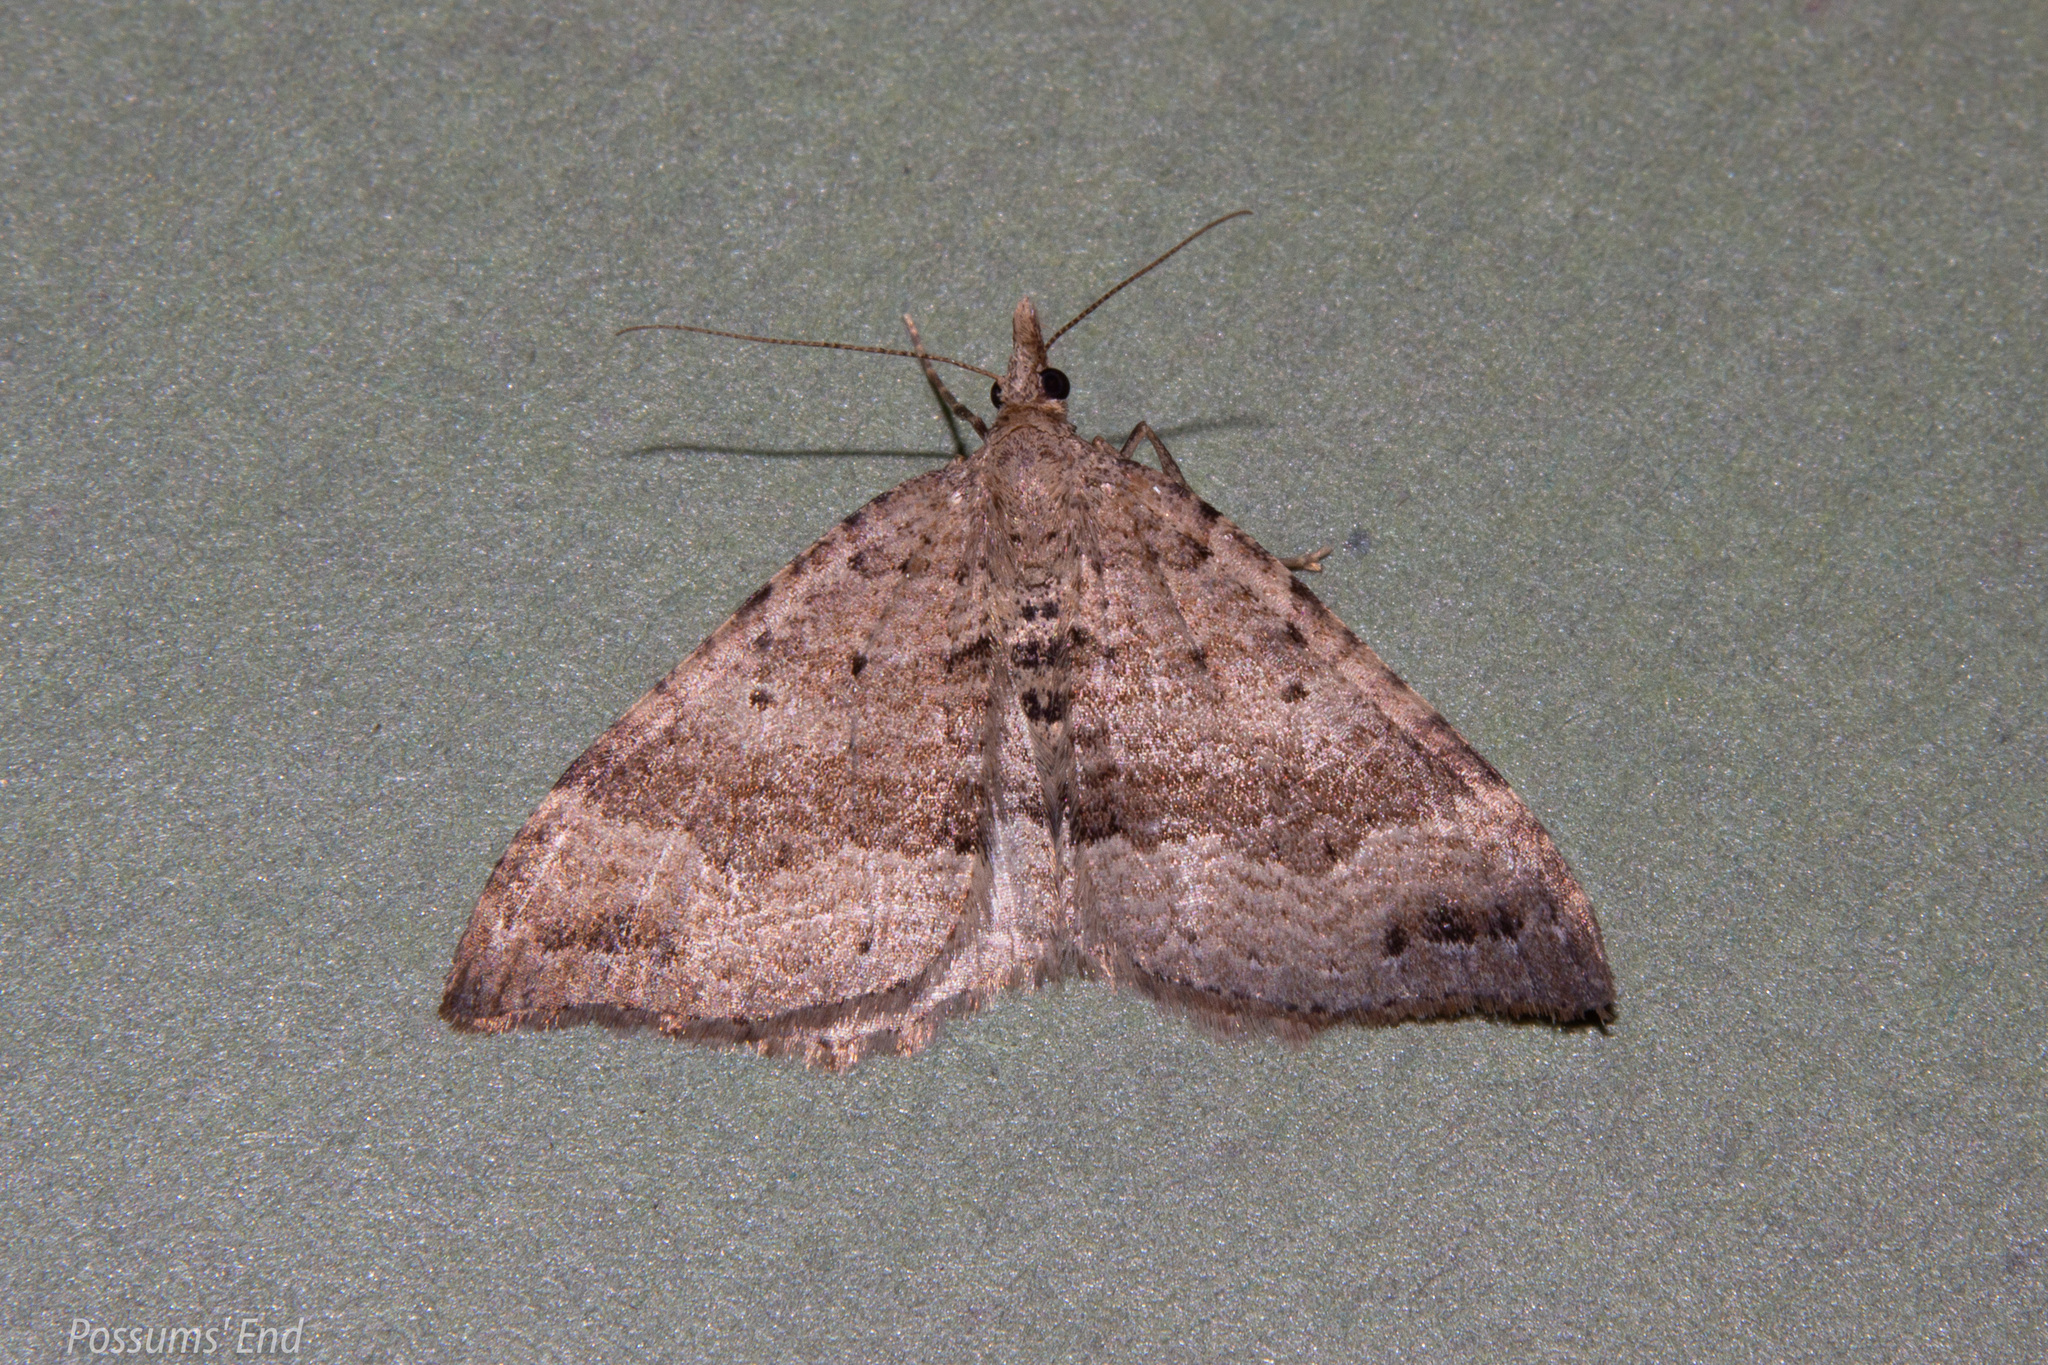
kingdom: Animalia
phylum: Arthropoda
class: Insecta
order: Lepidoptera
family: Geometridae
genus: Homodotis
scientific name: Homodotis falcata
